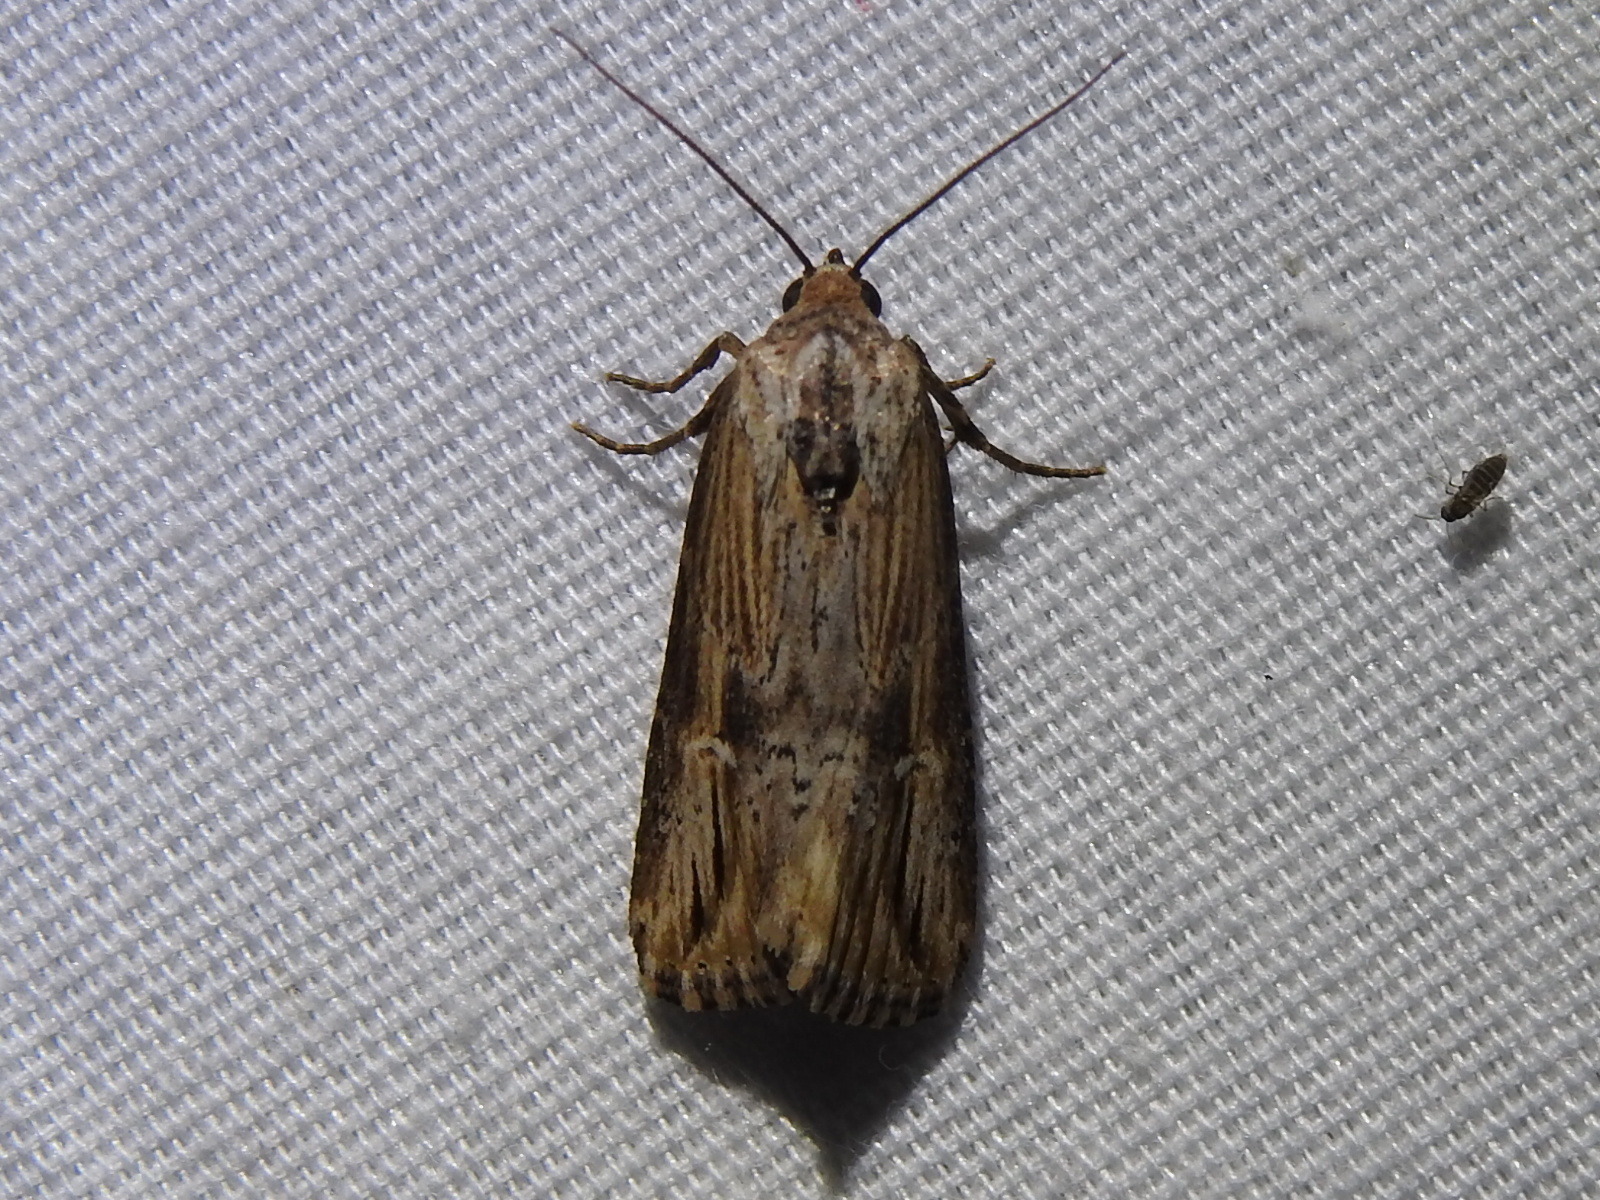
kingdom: Animalia
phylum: Arthropoda
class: Insecta
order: Lepidoptera
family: Noctuidae
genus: Crambodes
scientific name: Crambodes talidiformis
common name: Verbena moth
